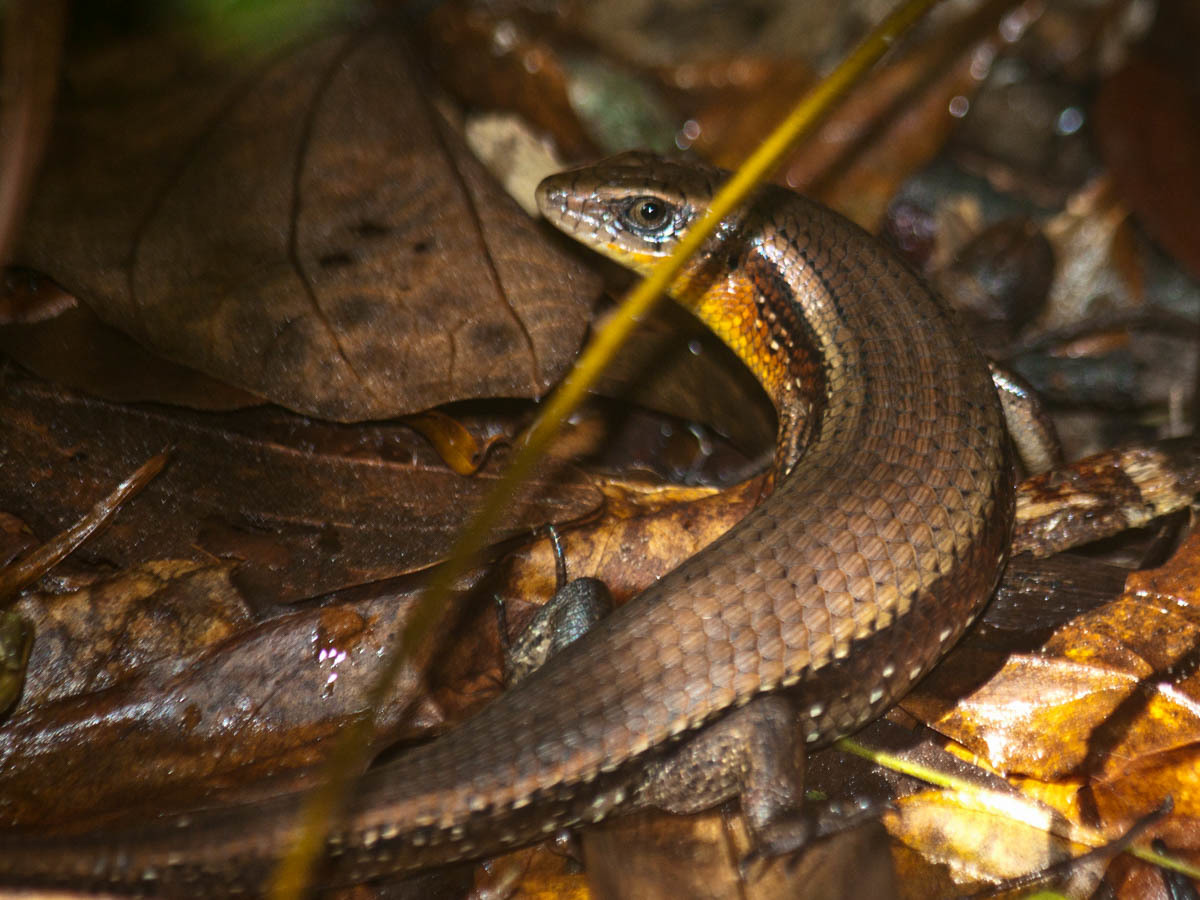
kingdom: Animalia
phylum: Chordata
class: Squamata
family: Scincidae
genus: Eutropis
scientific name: Eutropis multifasciata
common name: Common mabuya
